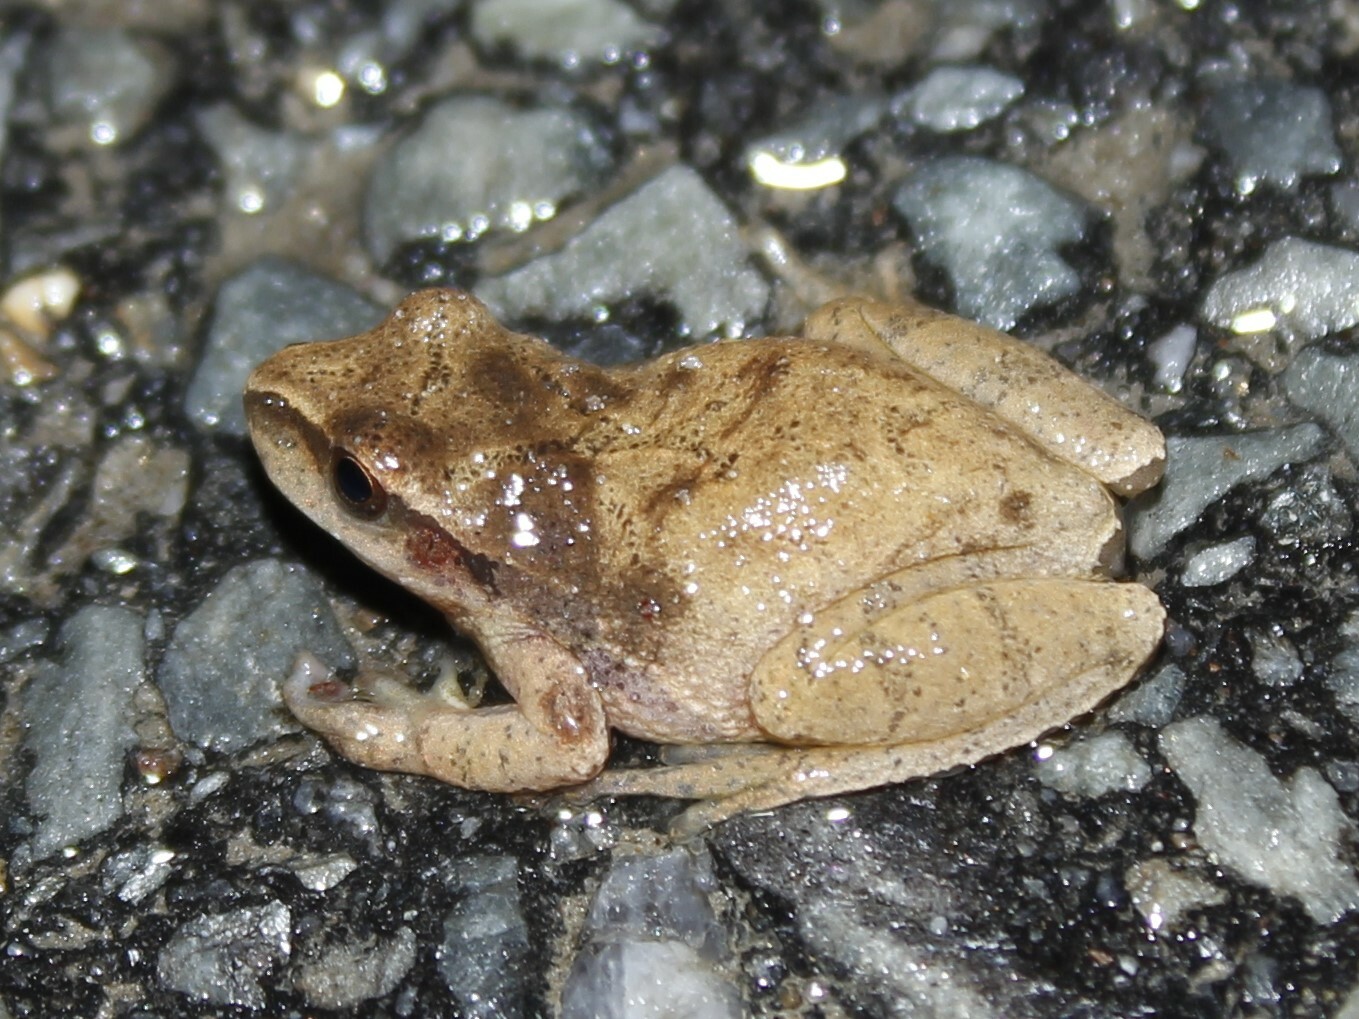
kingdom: Animalia
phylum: Chordata
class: Amphibia
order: Anura
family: Hylidae
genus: Pseudacris
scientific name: Pseudacris crucifer
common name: Spring peeper
